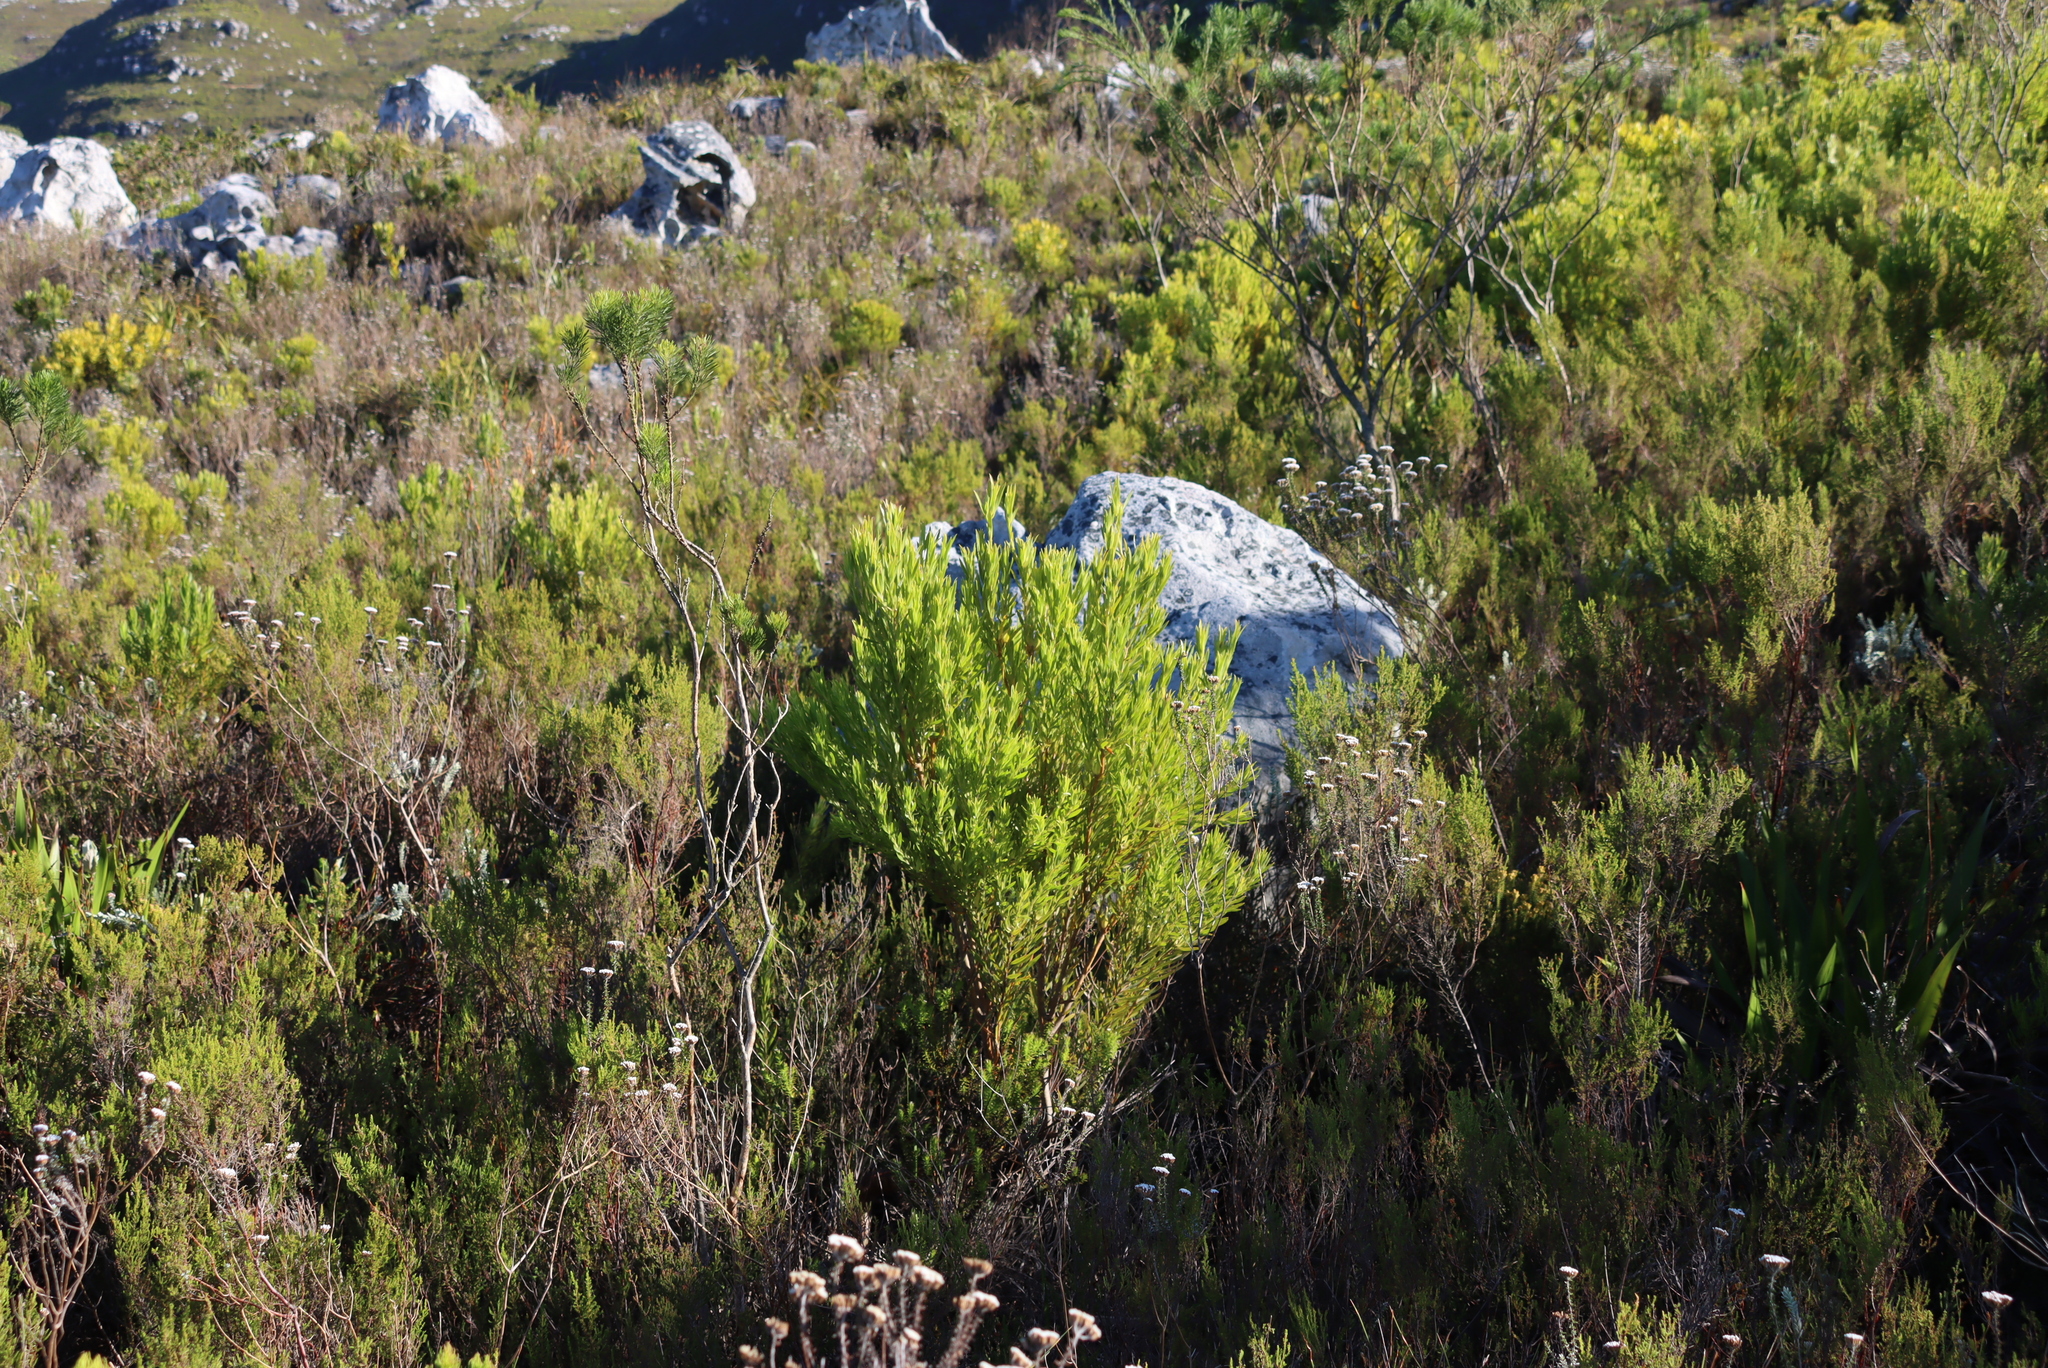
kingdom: Plantae
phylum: Tracheophyta
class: Magnoliopsida
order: Proteales
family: Proteaceae
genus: Leucadendron
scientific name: Leucadendron xanthoconus
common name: Sickle-leaf conebush
